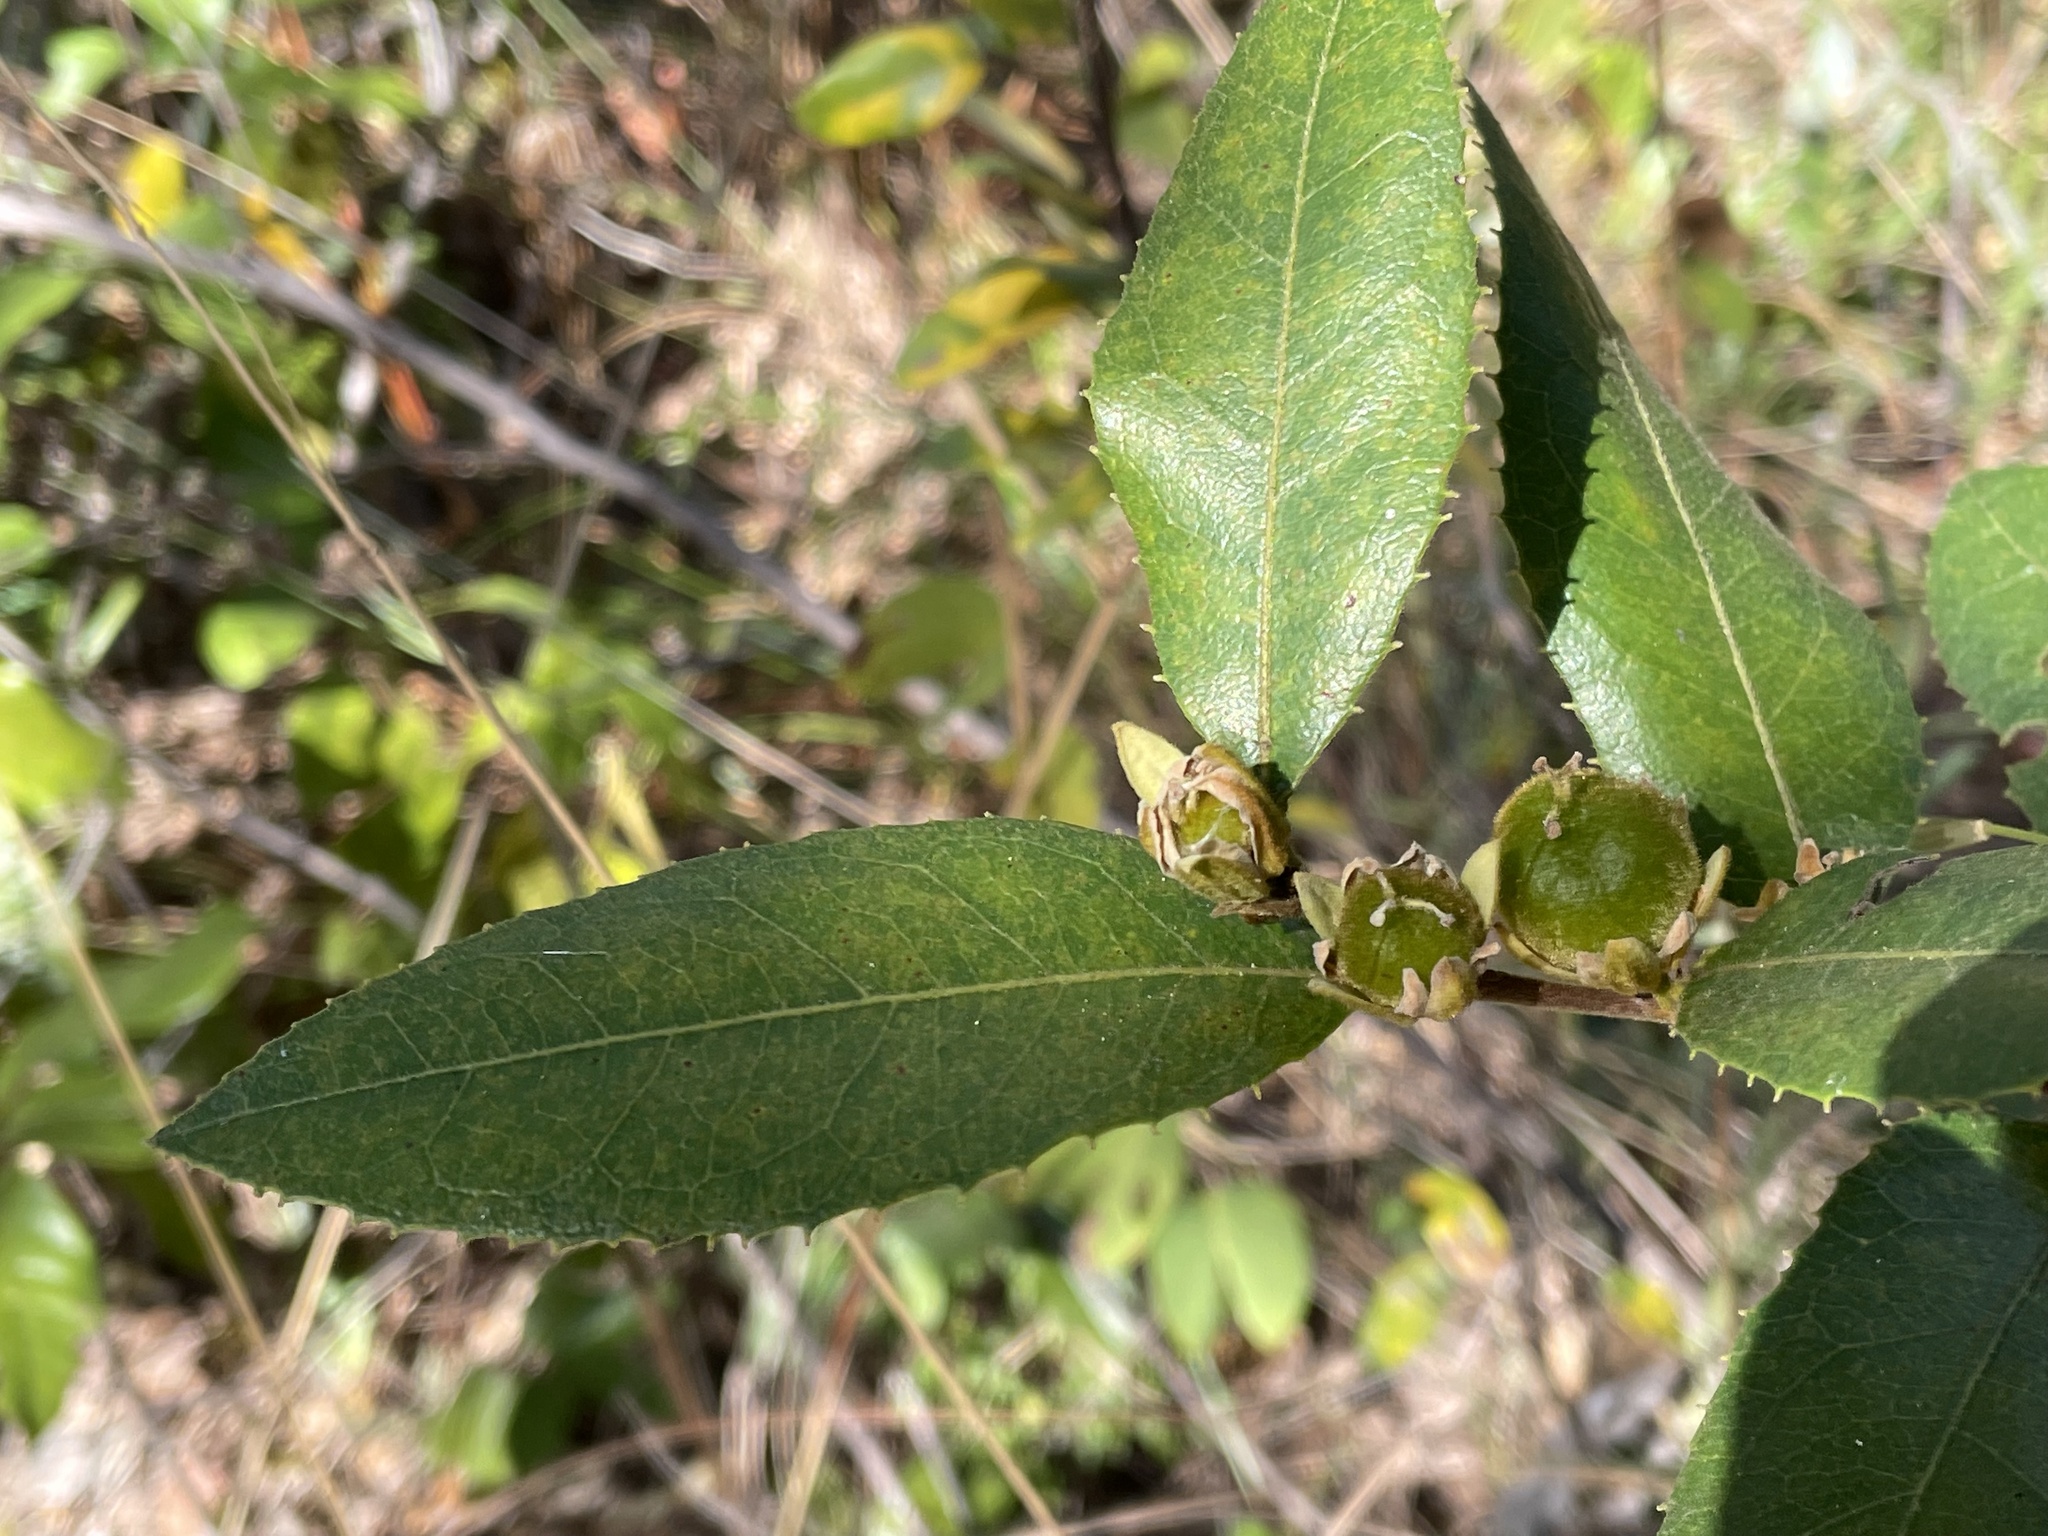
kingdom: Plantae
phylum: Tracheophyta
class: Magnoliopsida
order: Malpighiales
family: Passifloraceae
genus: Paropsia
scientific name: Paropsia brazzaeana
